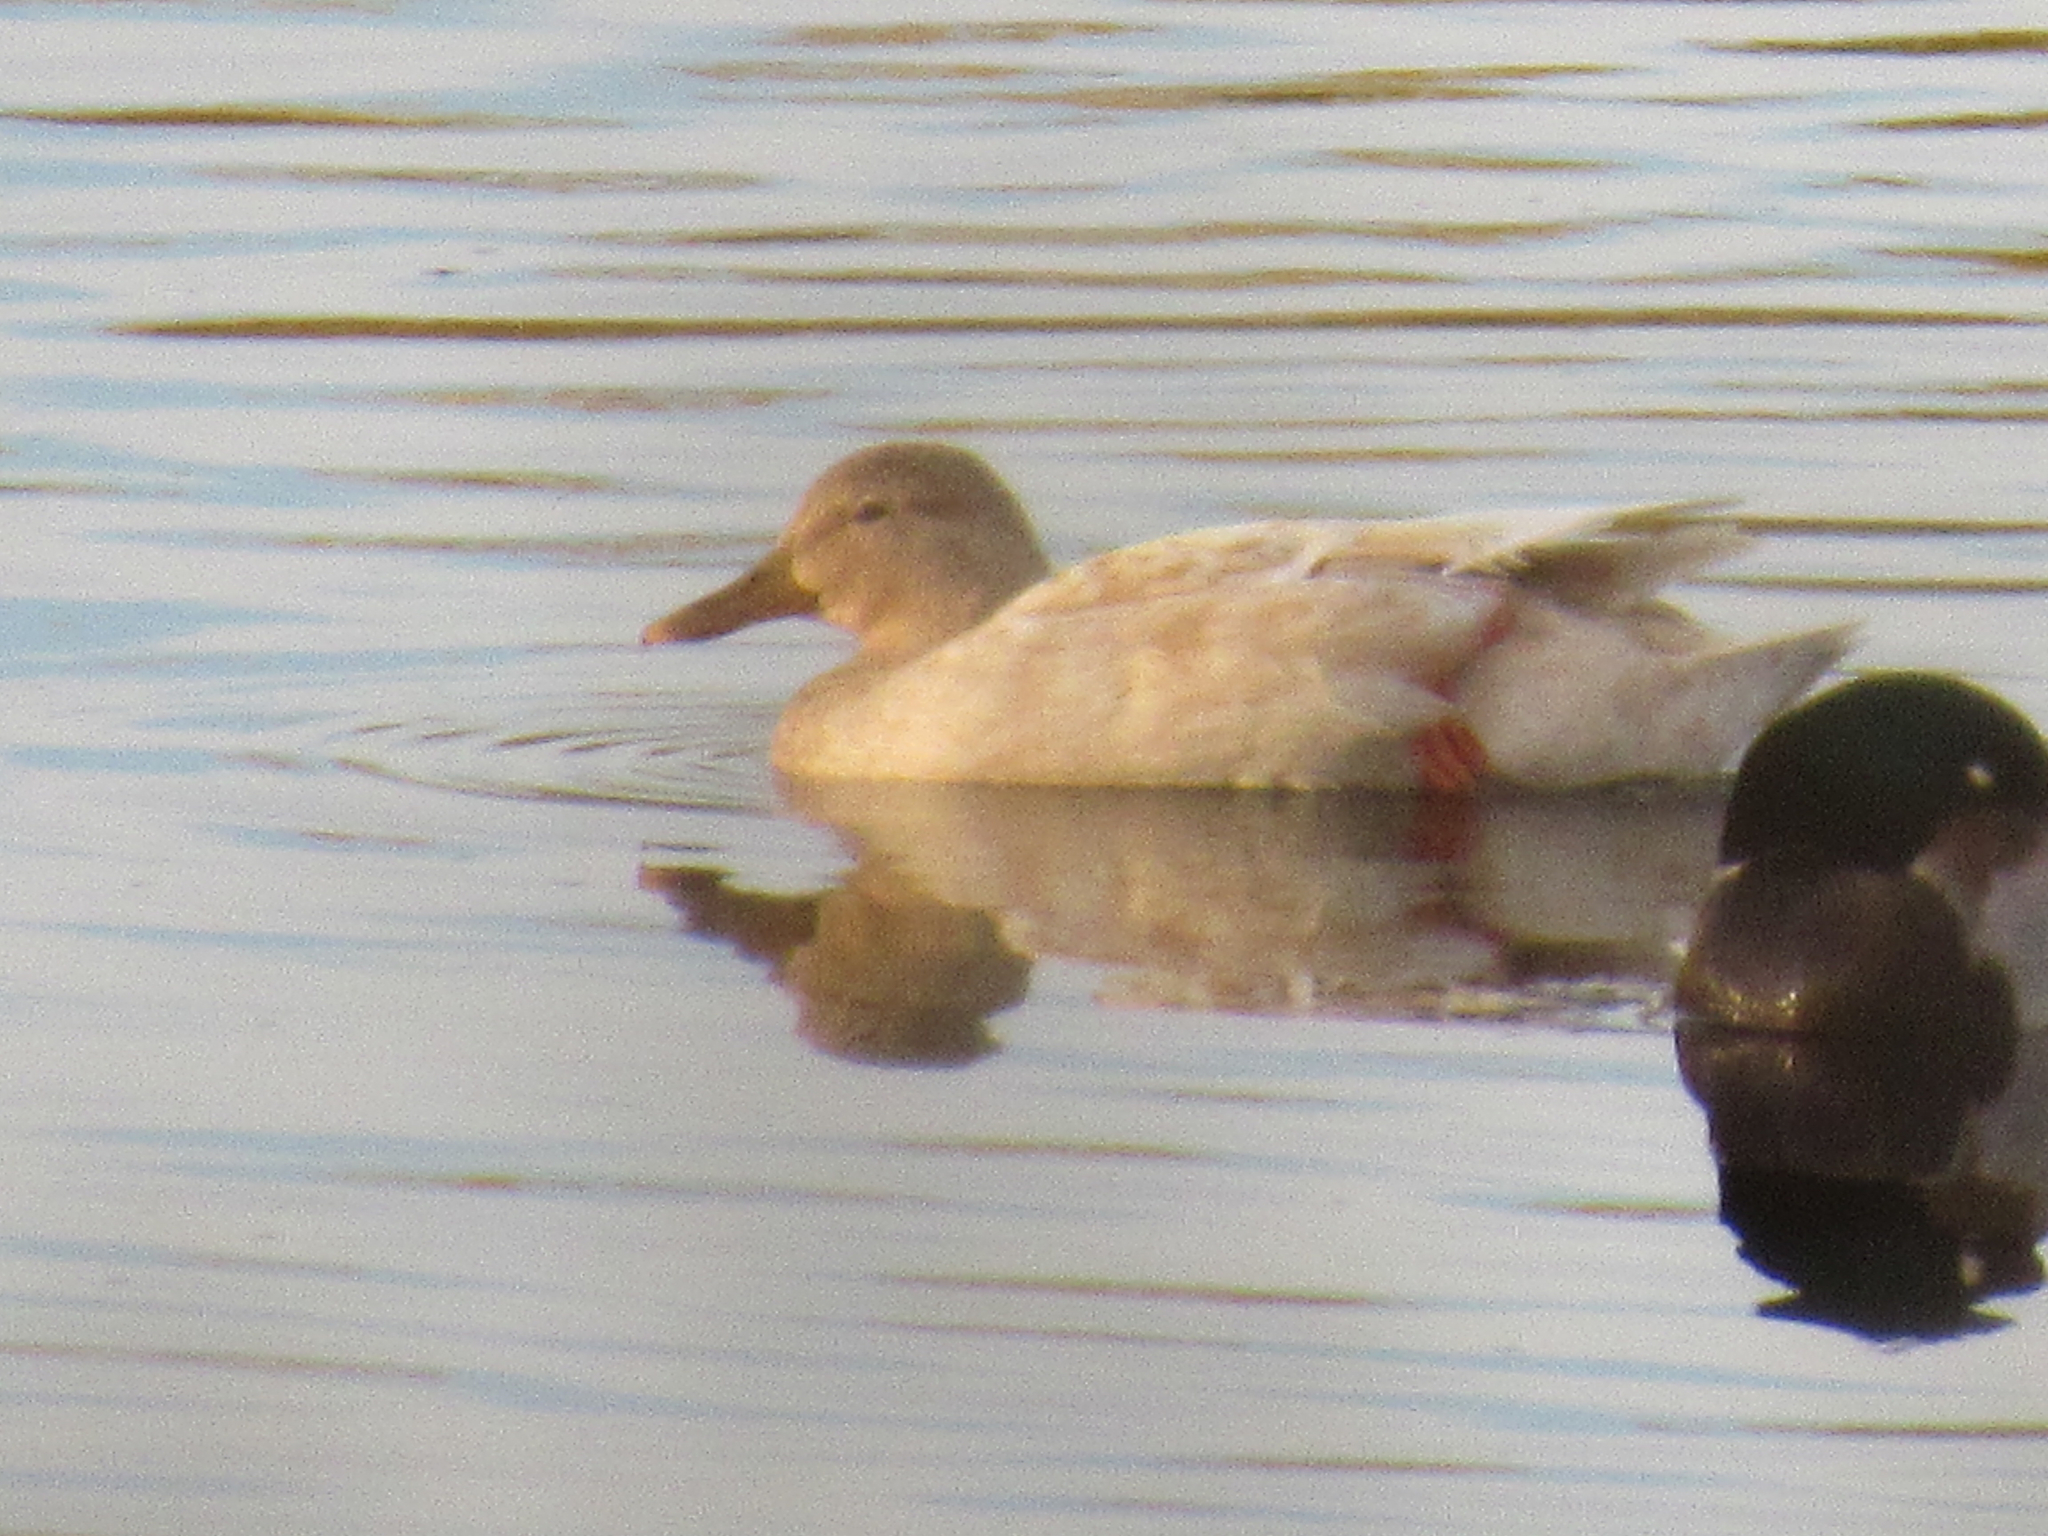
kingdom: Animalia
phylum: Chordata
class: Aves
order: Anseriformes
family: Anatidae
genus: Anas
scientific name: Anas platyrhynchos
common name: Mallard
